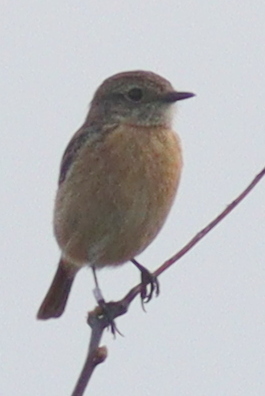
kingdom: Animalia
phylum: Chordata
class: Aves
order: Passeriformes
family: Muscicapidae
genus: Saxicola
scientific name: Saxicola rubicola
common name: European stonechat
